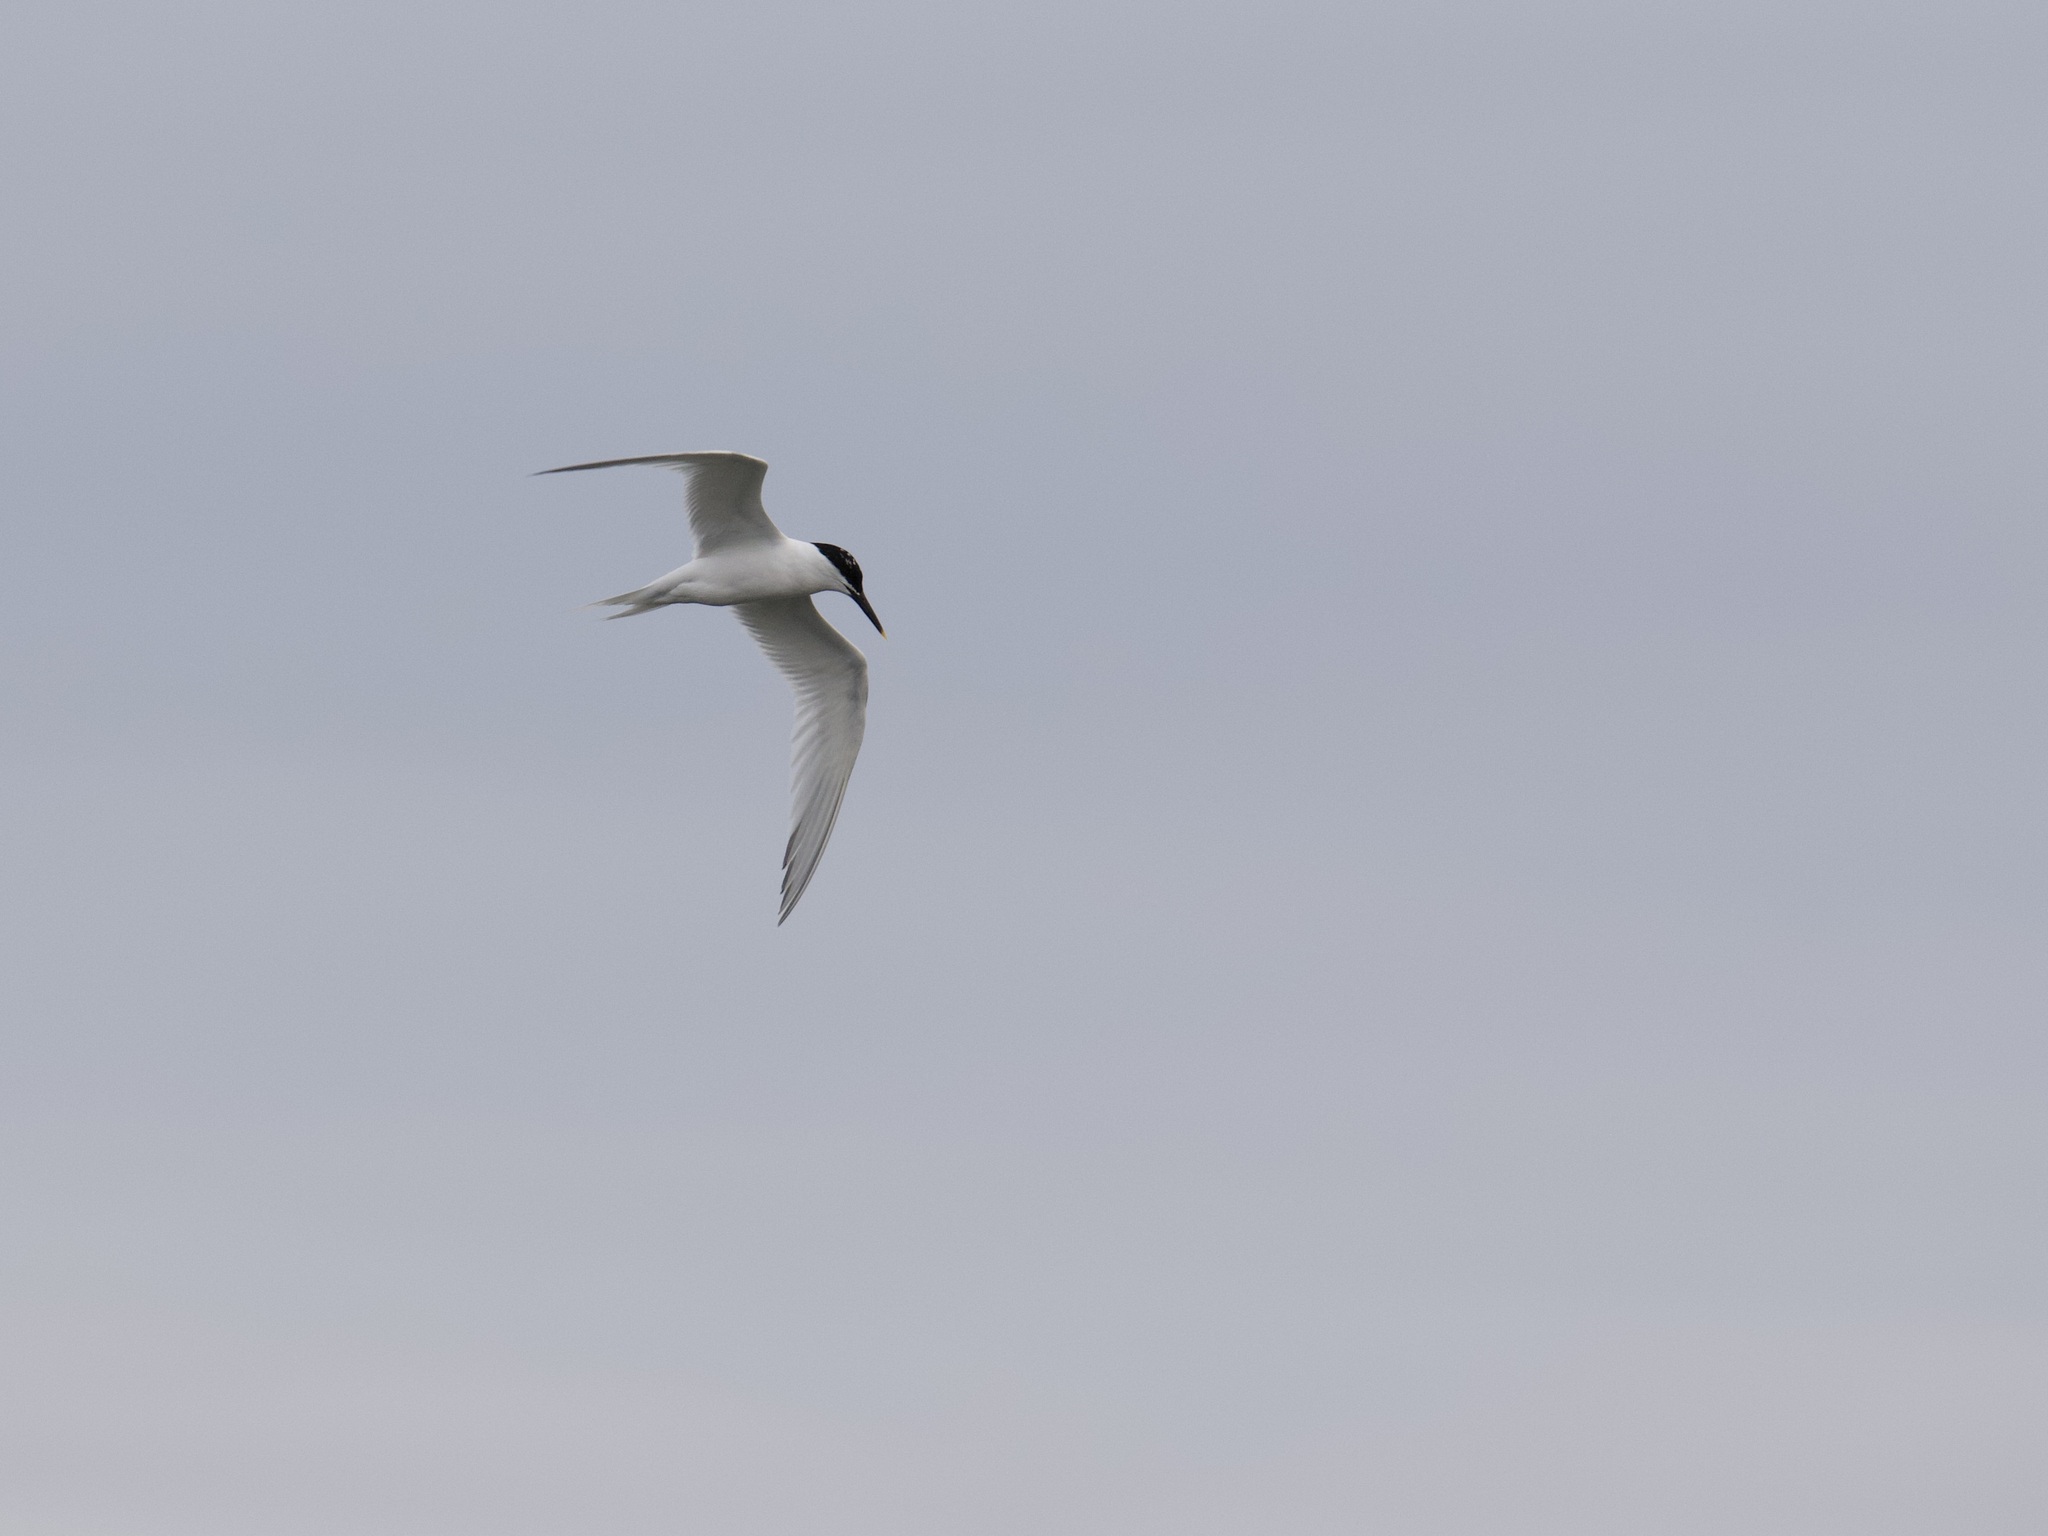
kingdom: Animalia
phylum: Chordata
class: Aves
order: Charadriiformes
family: Laridae
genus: Thalasseus
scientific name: Thalasseus sandvicensis
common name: Sandwich tern
